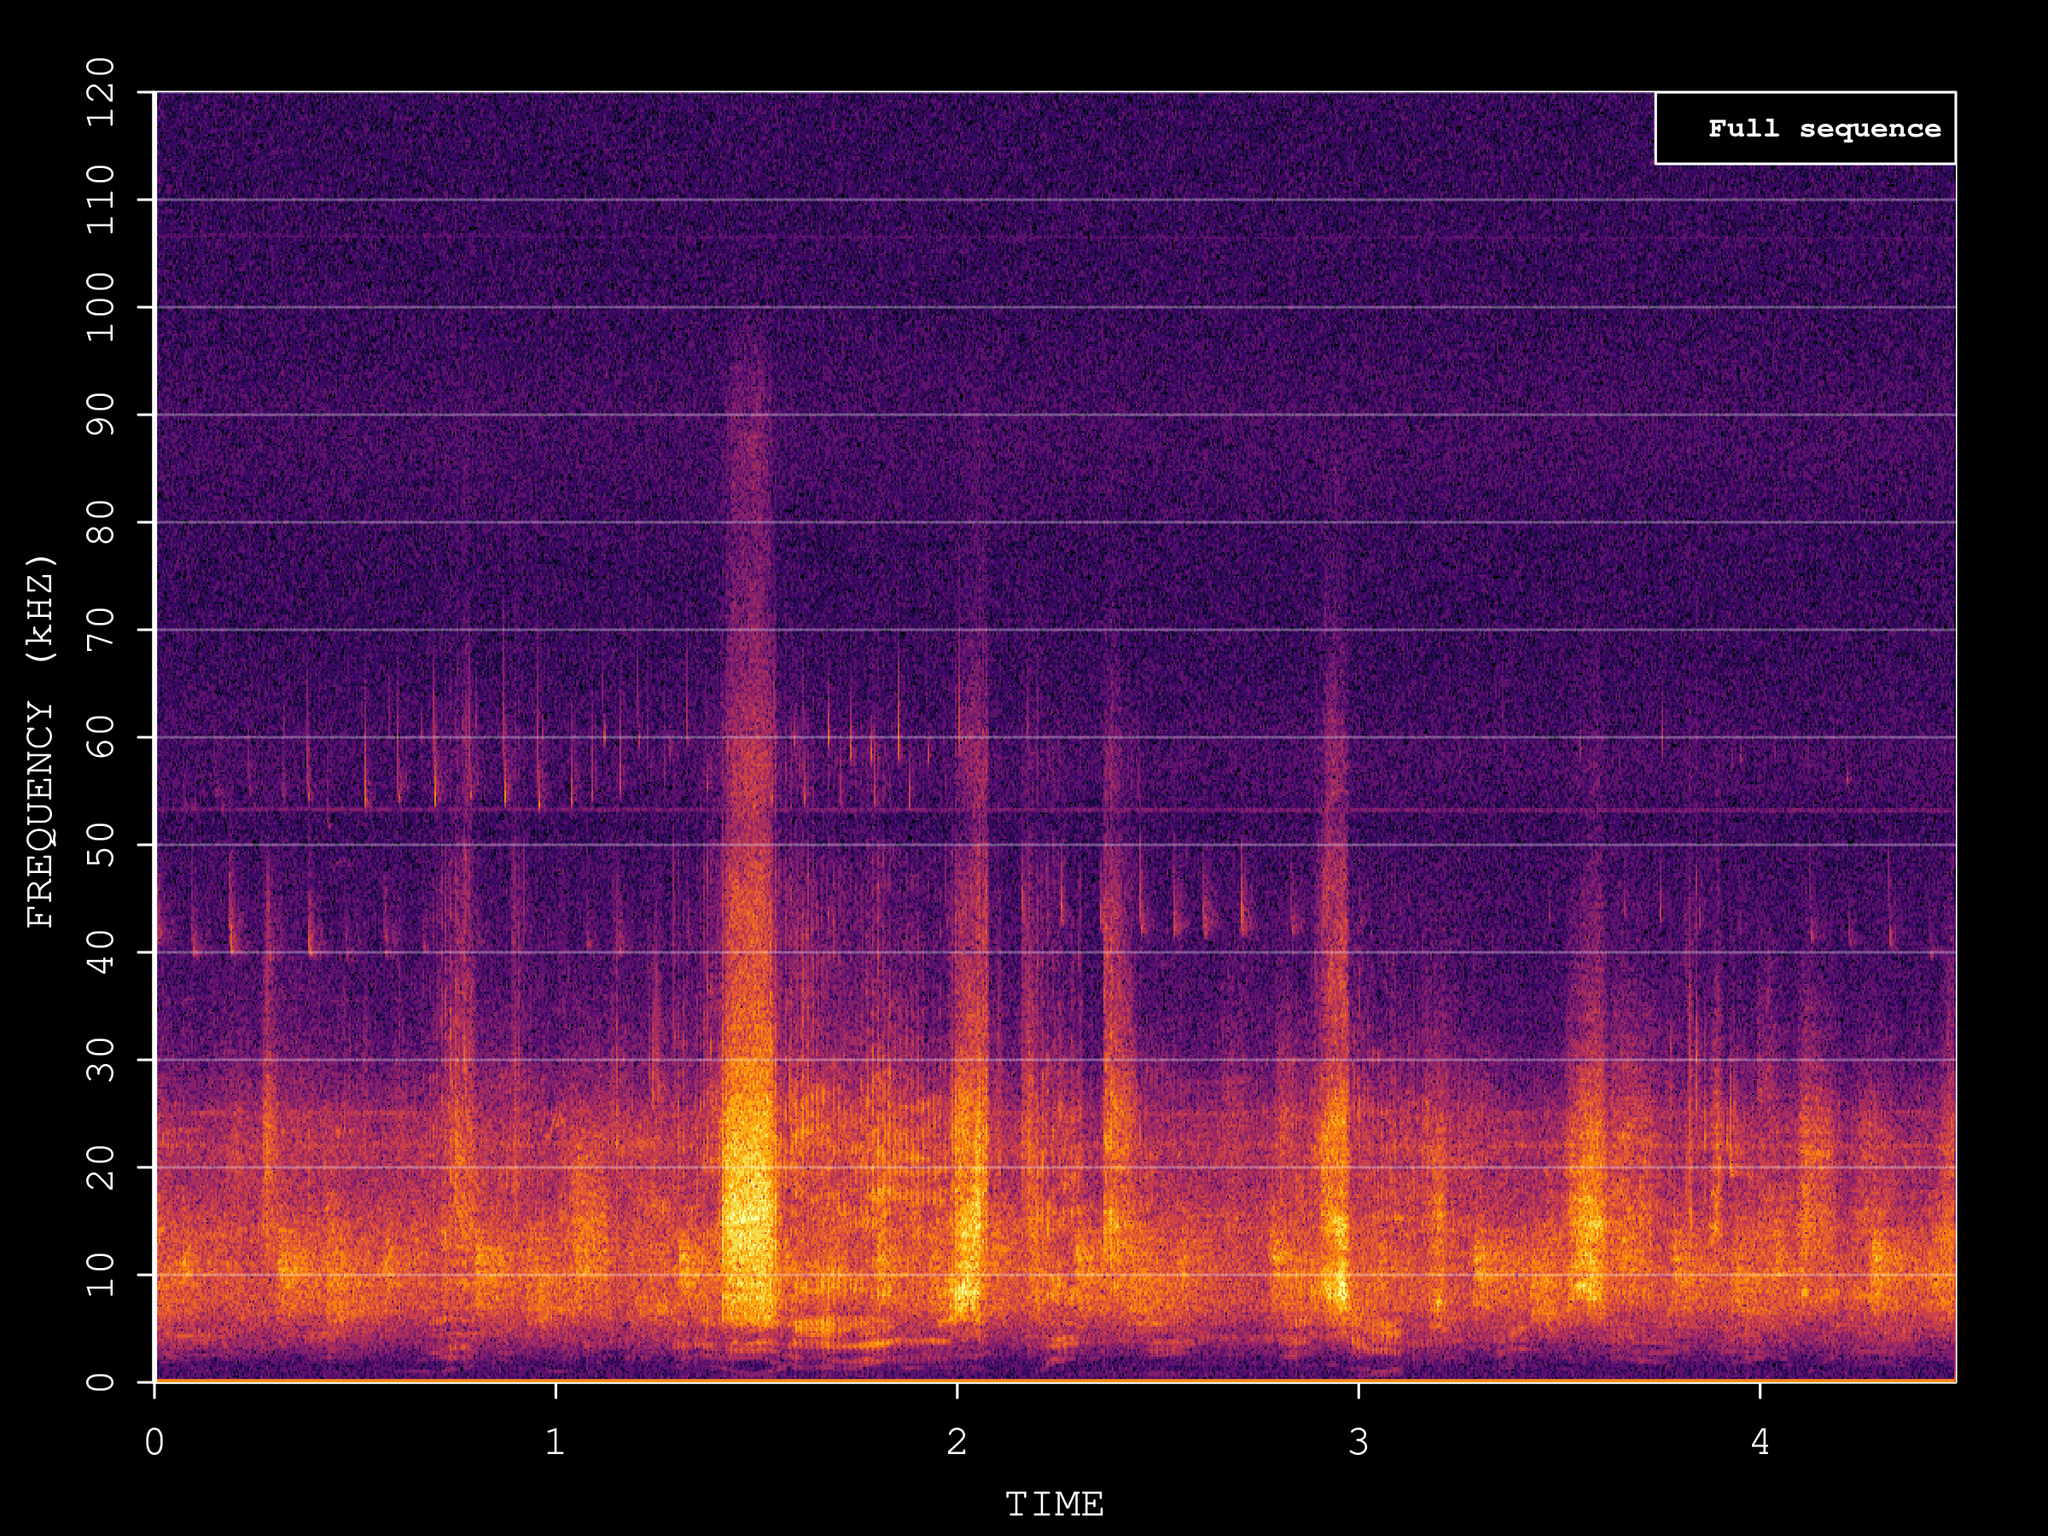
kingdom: Animalia
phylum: Chordata
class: Mammalia
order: Chiroptera
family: Vespertilionidae
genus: Pipistrellus
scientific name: Pipistrellus pygmaeus
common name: Soprano pipistrelle
